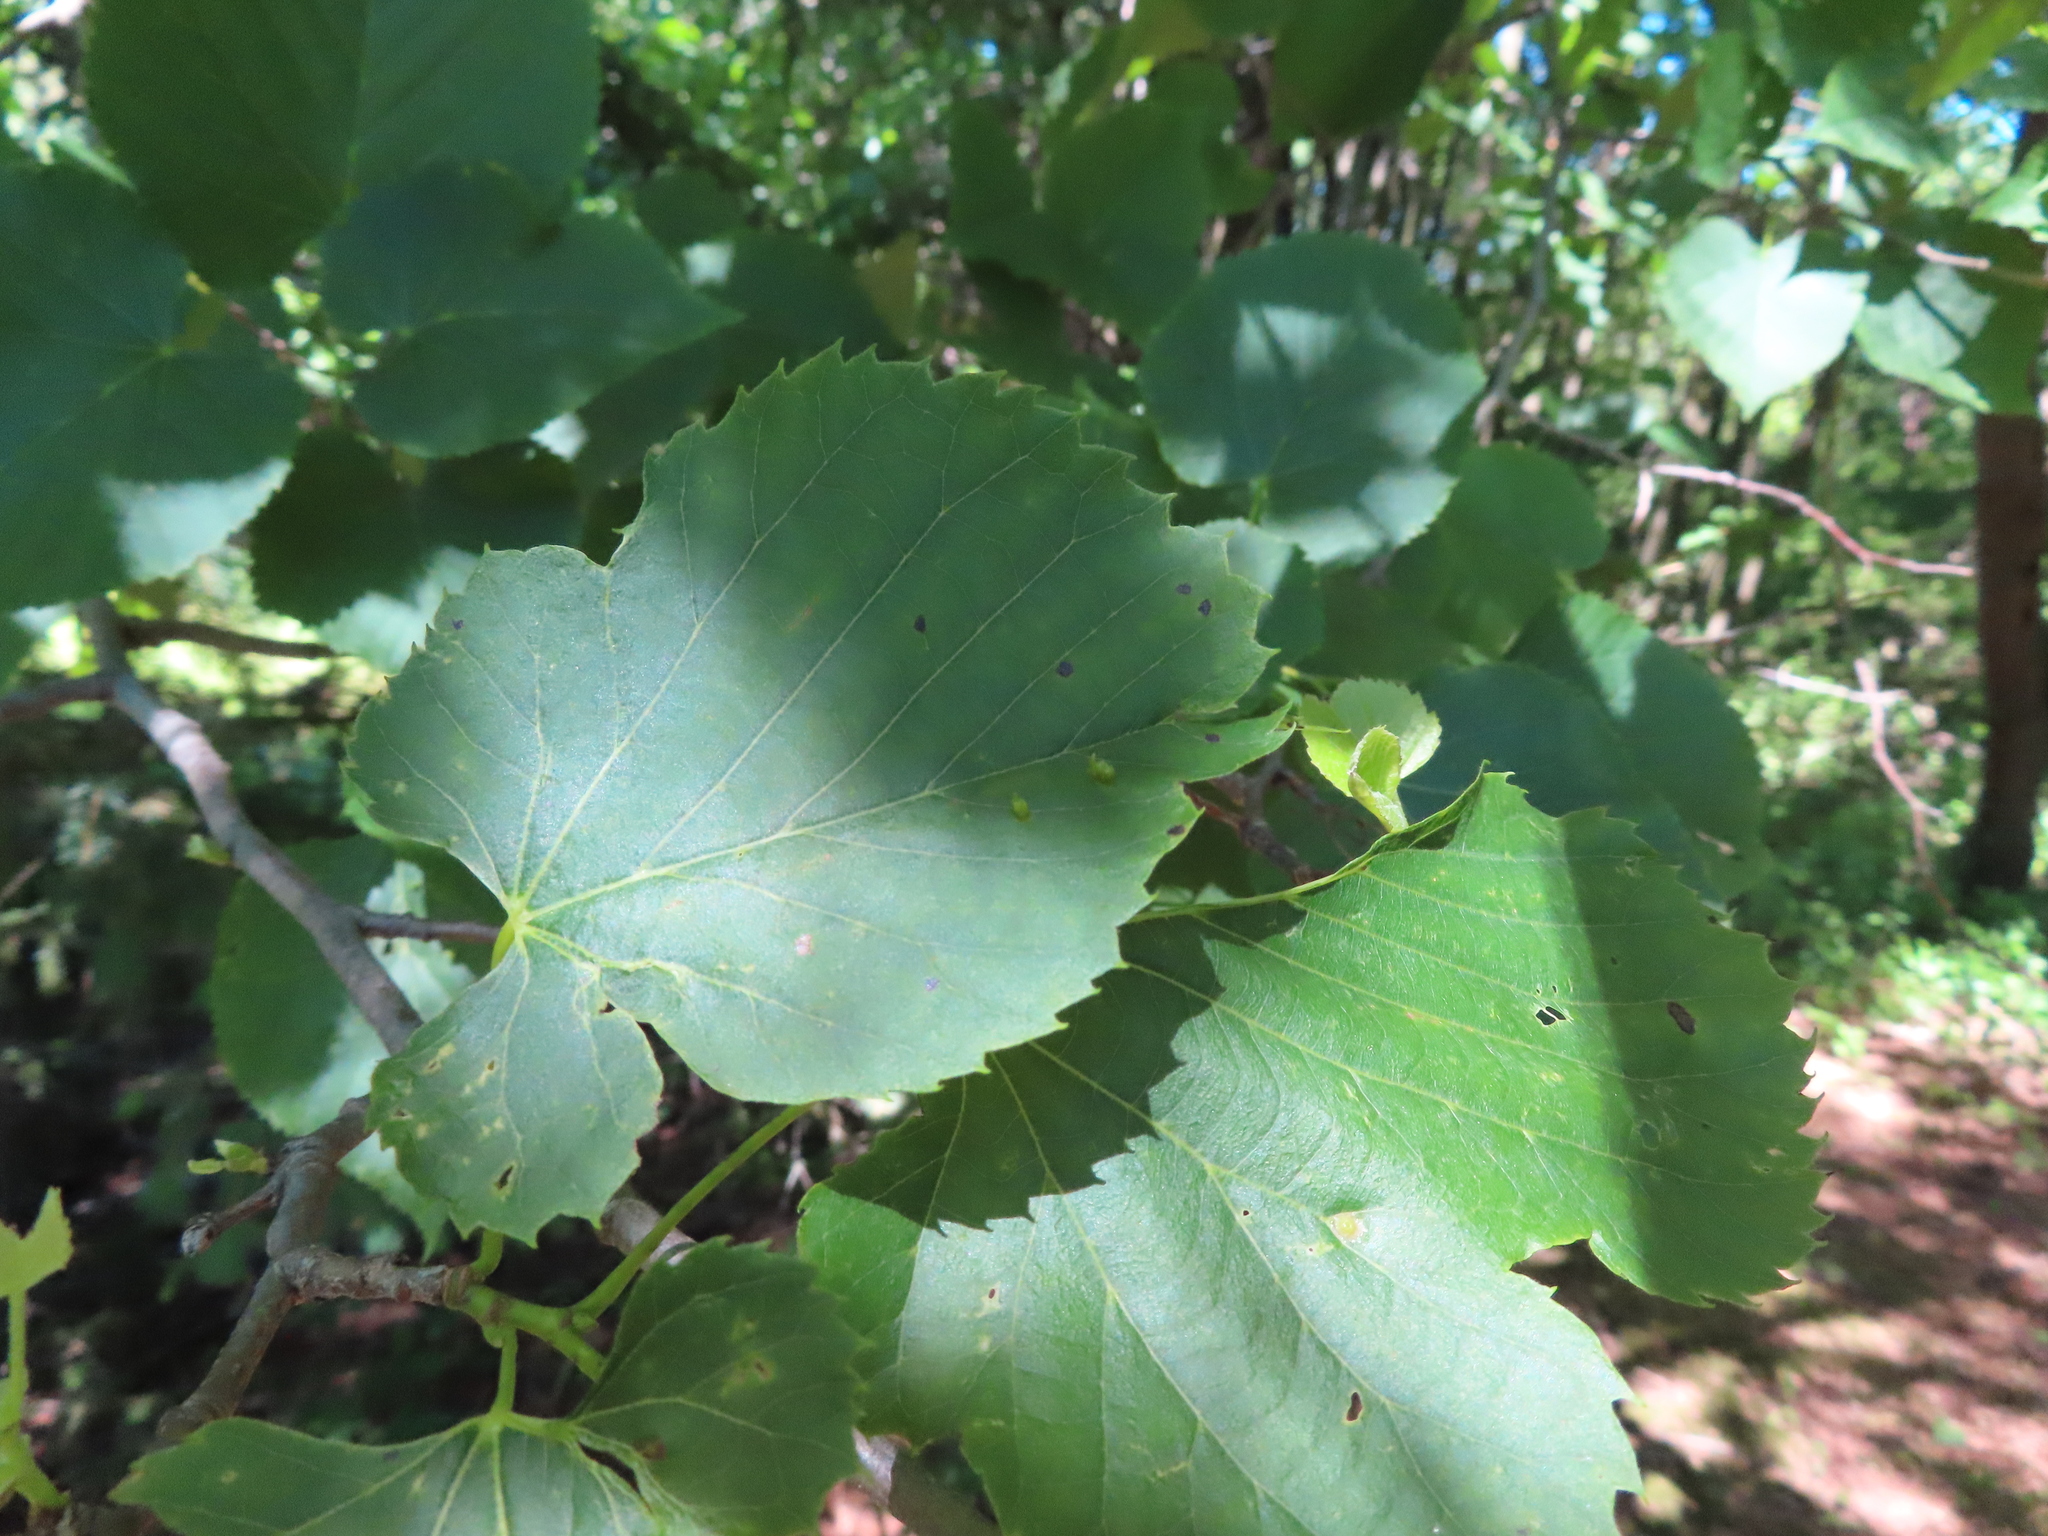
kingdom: Plantae
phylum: Tracheophyta
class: Magnoliopsida
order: Malvales
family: Malvaceae
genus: Tilia
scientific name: Tilia americana
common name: Basswood
